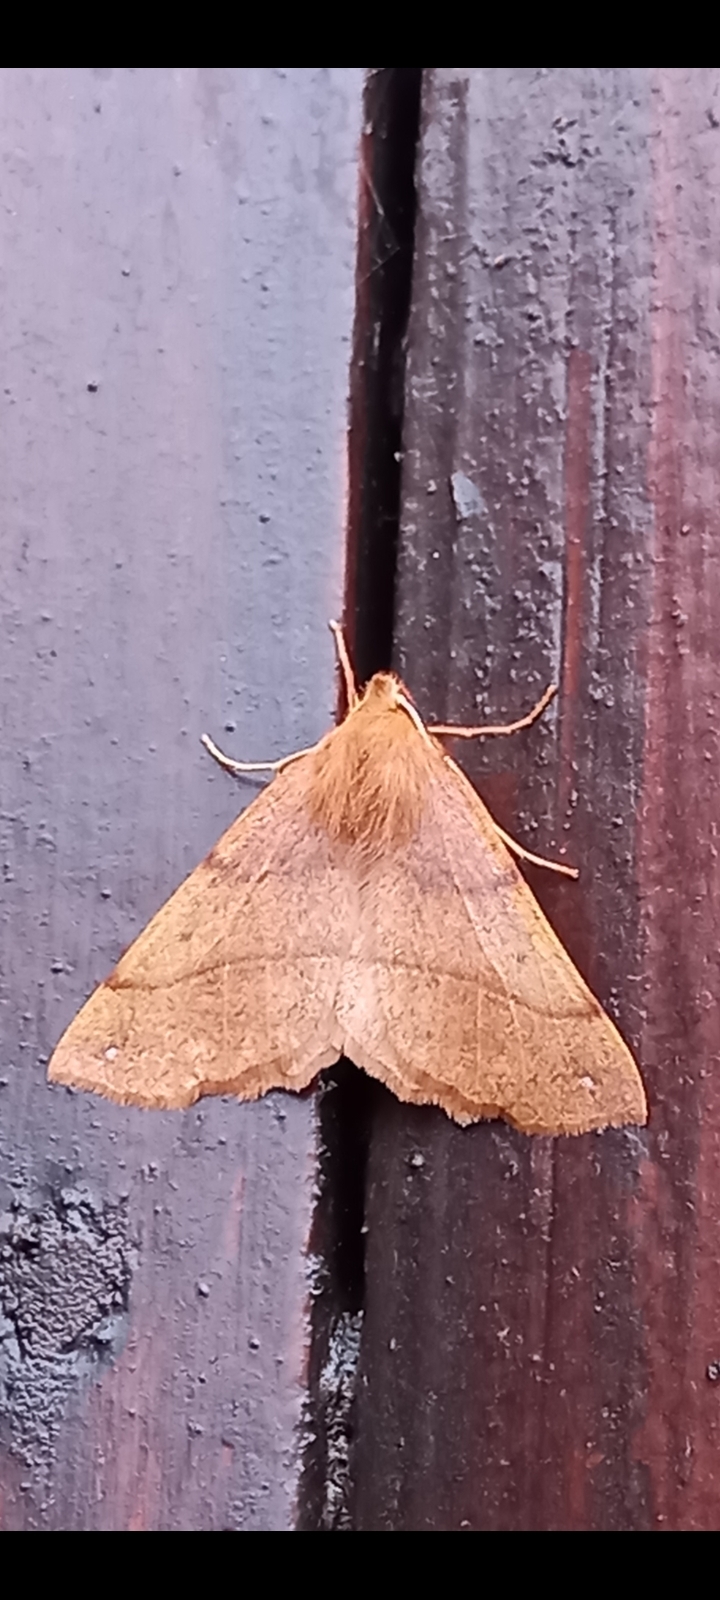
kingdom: Animalia
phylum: Arthropoda
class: Insecta
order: Lepidoptera
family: Geometridae
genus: Colotois
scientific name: Colotois pennaria
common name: Feathered thorn
